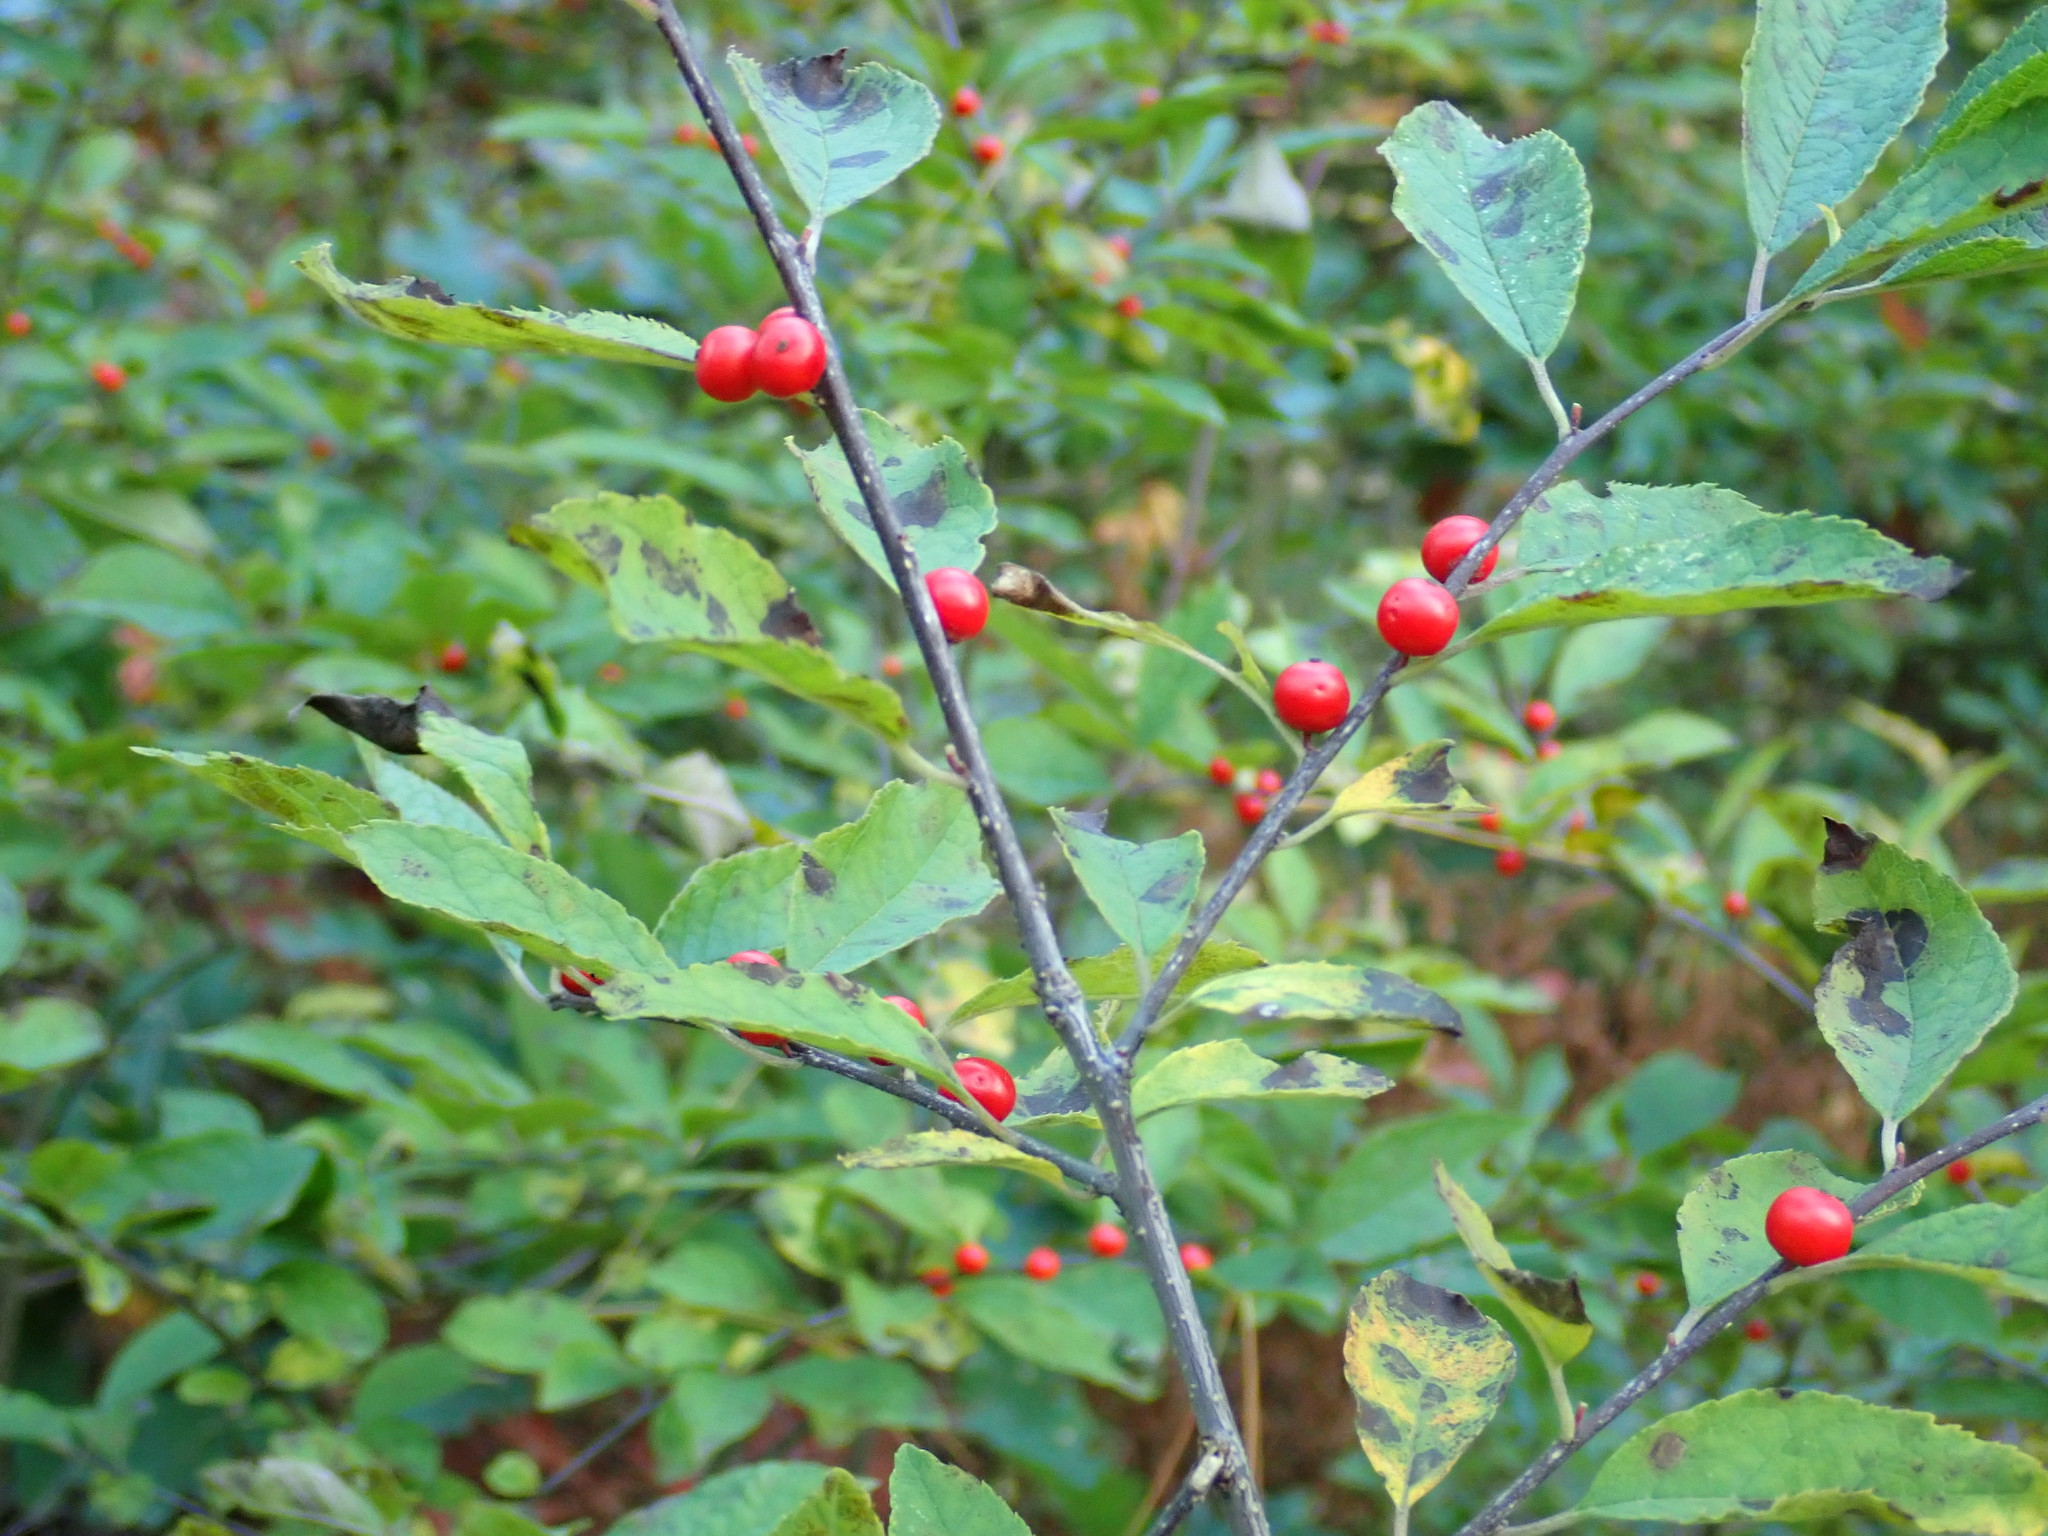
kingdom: Plantae
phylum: Tracheophyta
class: Magnoliopsida
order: Aquifoliales
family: Aquifoliaceae
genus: Ilex
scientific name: Ilex verticillata
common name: Virginia winterberry
